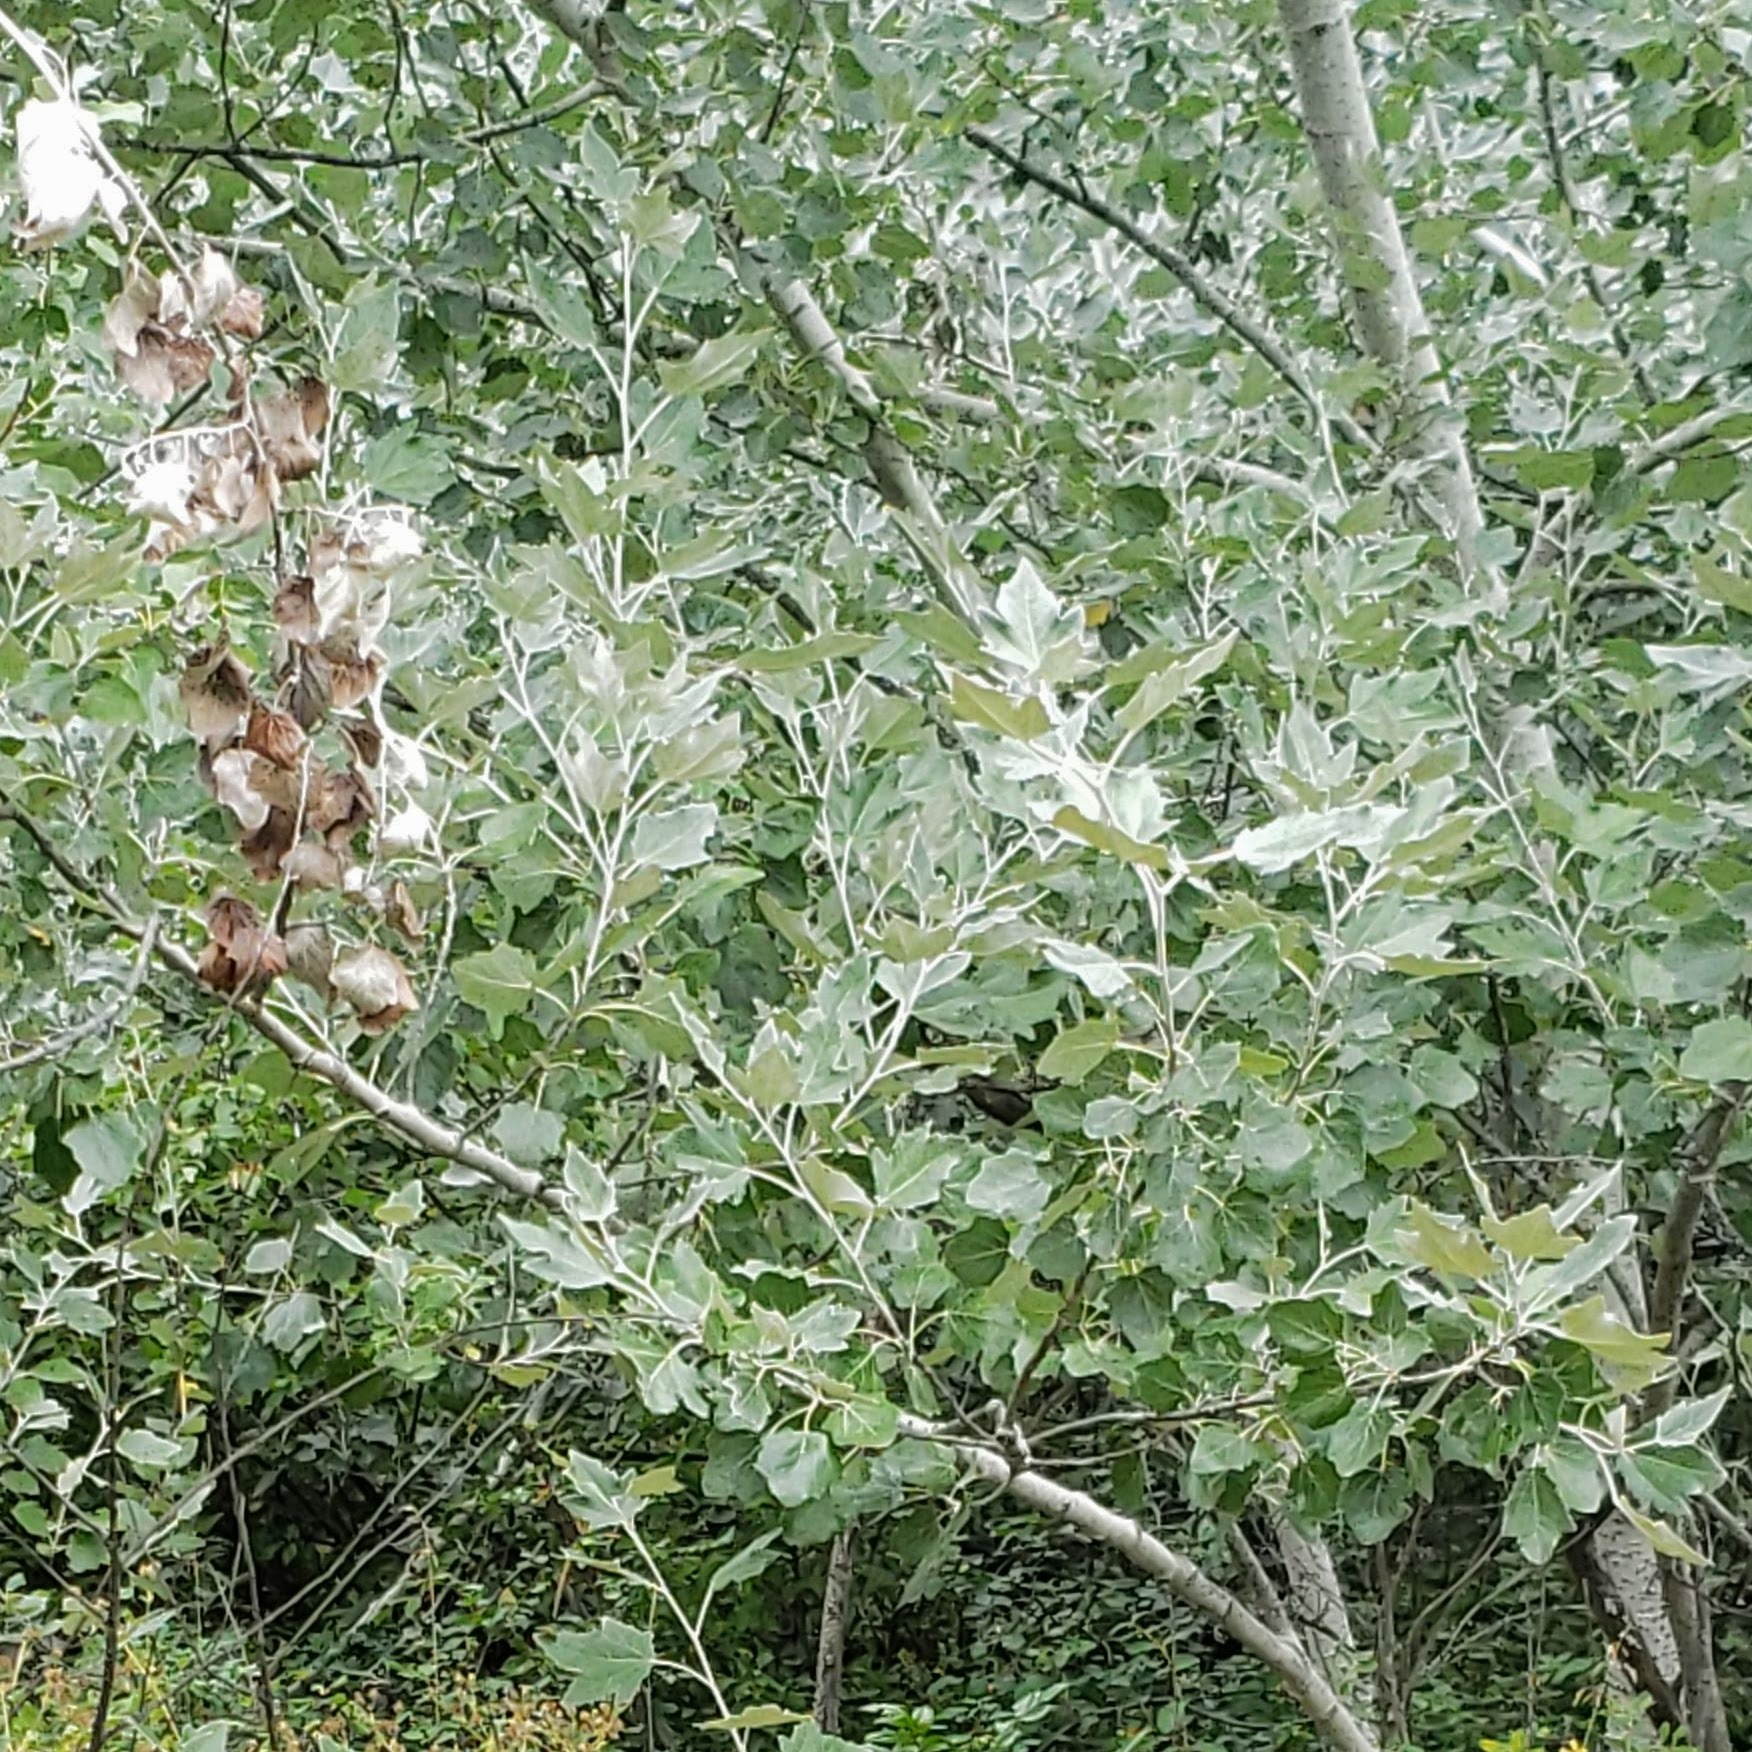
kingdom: Plantae
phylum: Tracheophyta
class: Magnoliopsida
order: Malpighiales
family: Salicaceae
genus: Populus
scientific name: Populus alba
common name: White poplar
